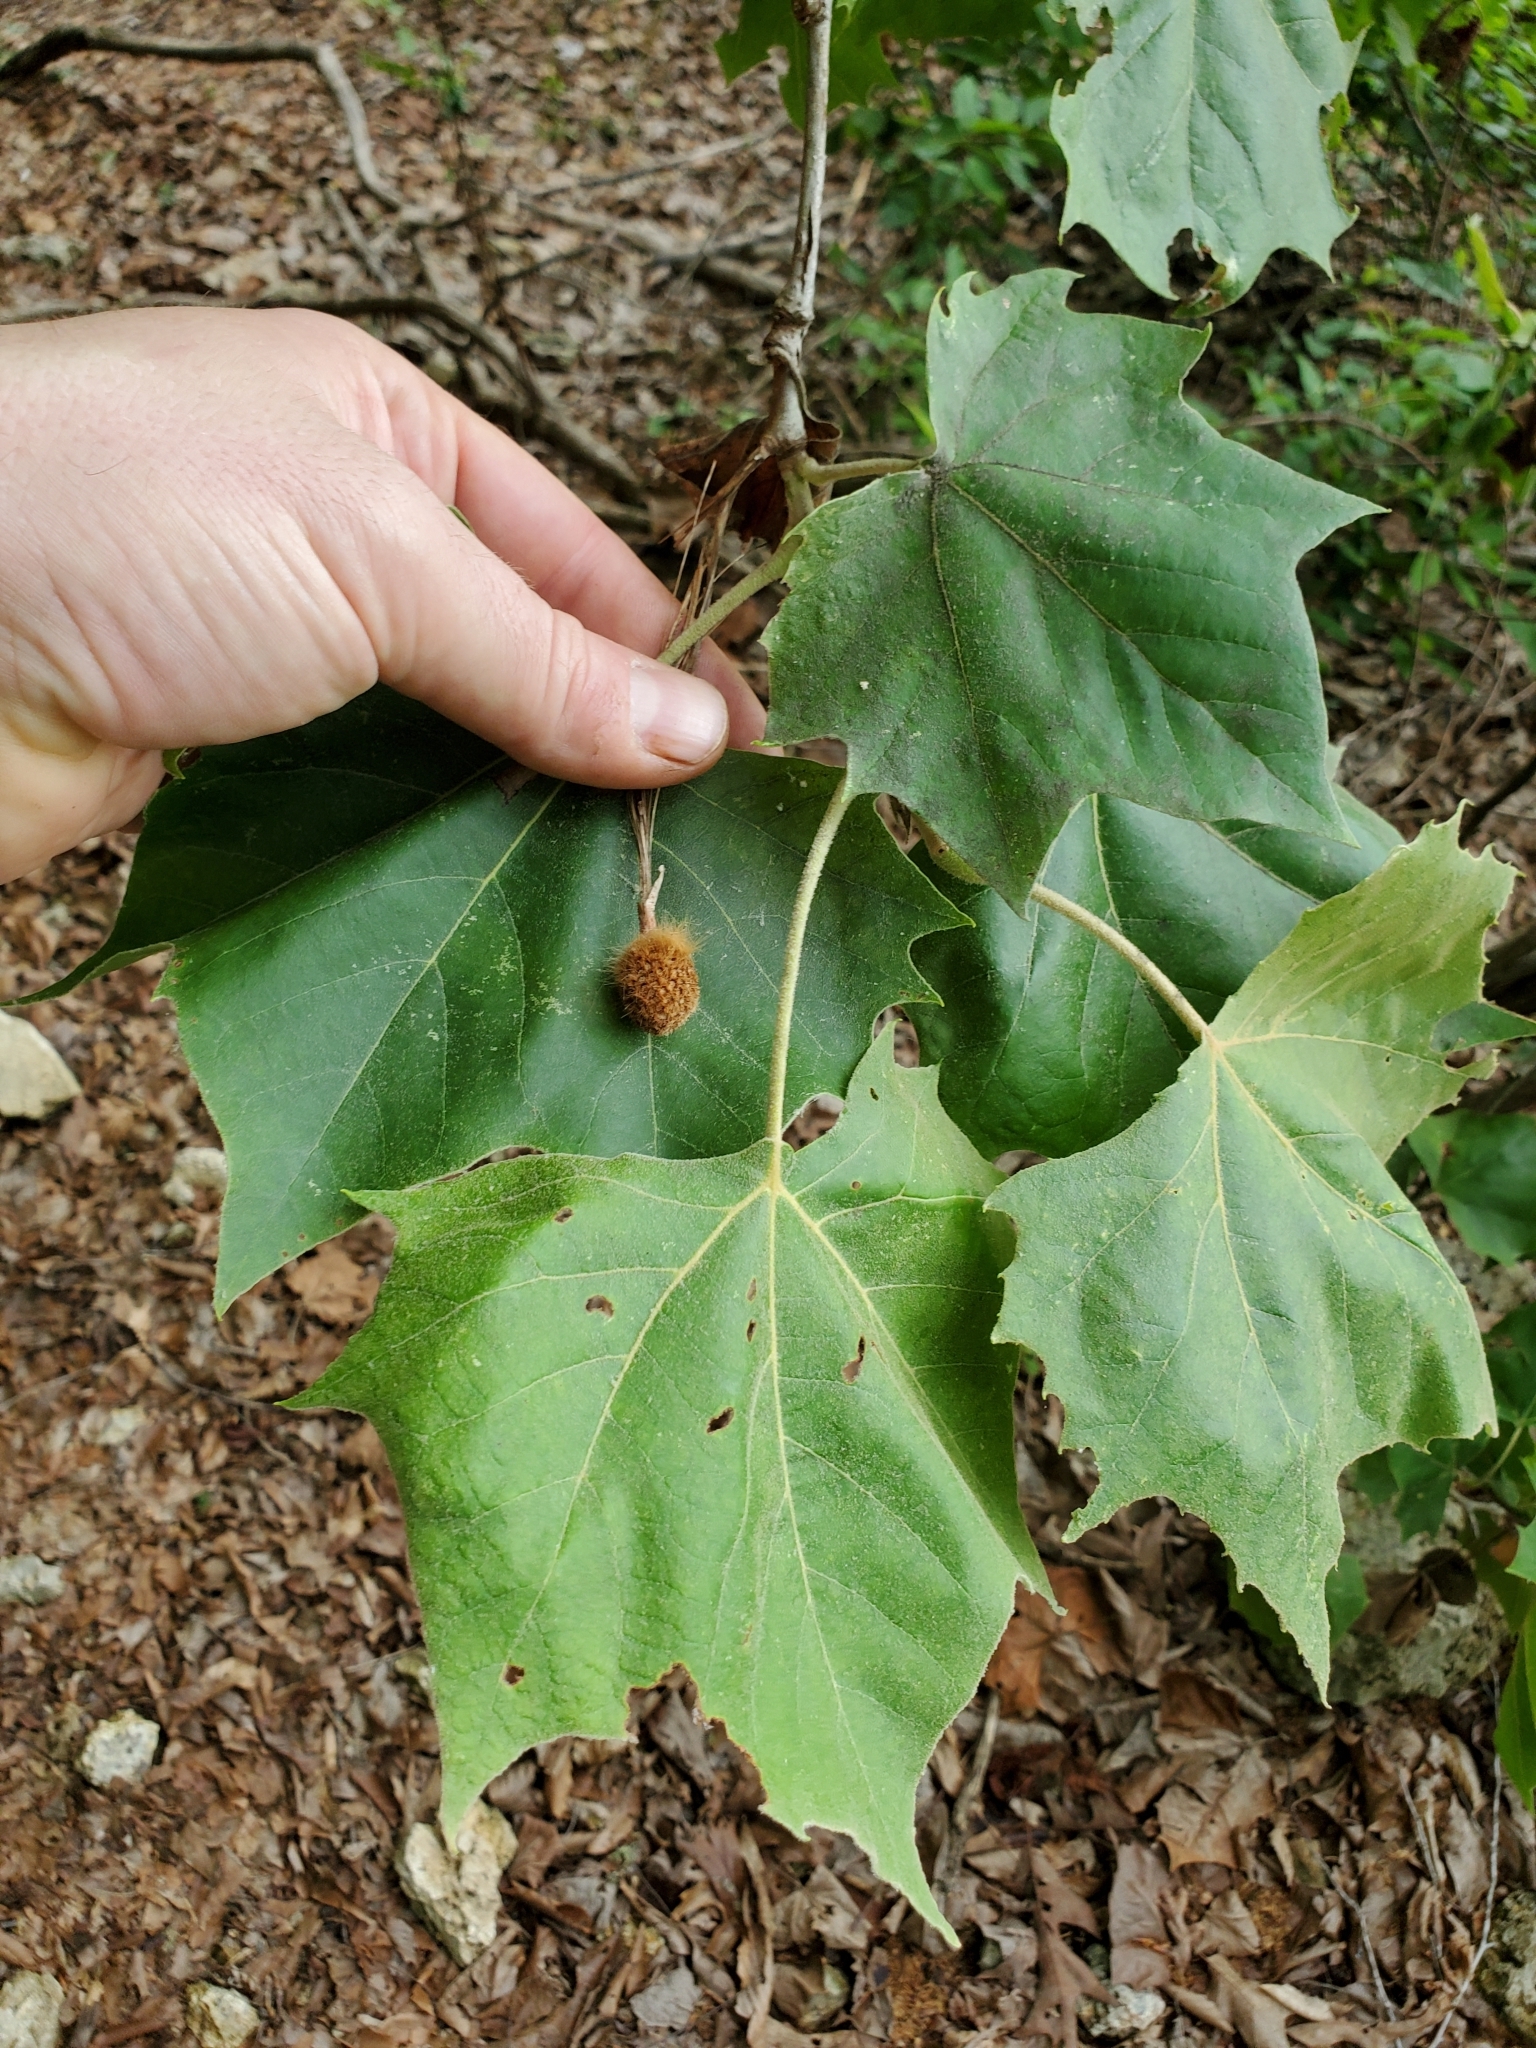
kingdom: Plantae
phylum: Tracheophyta
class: Magnoliopsida
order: Proteales
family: Platanaceae
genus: Platanus
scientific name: Platanus occidentalis
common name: American sycamore
